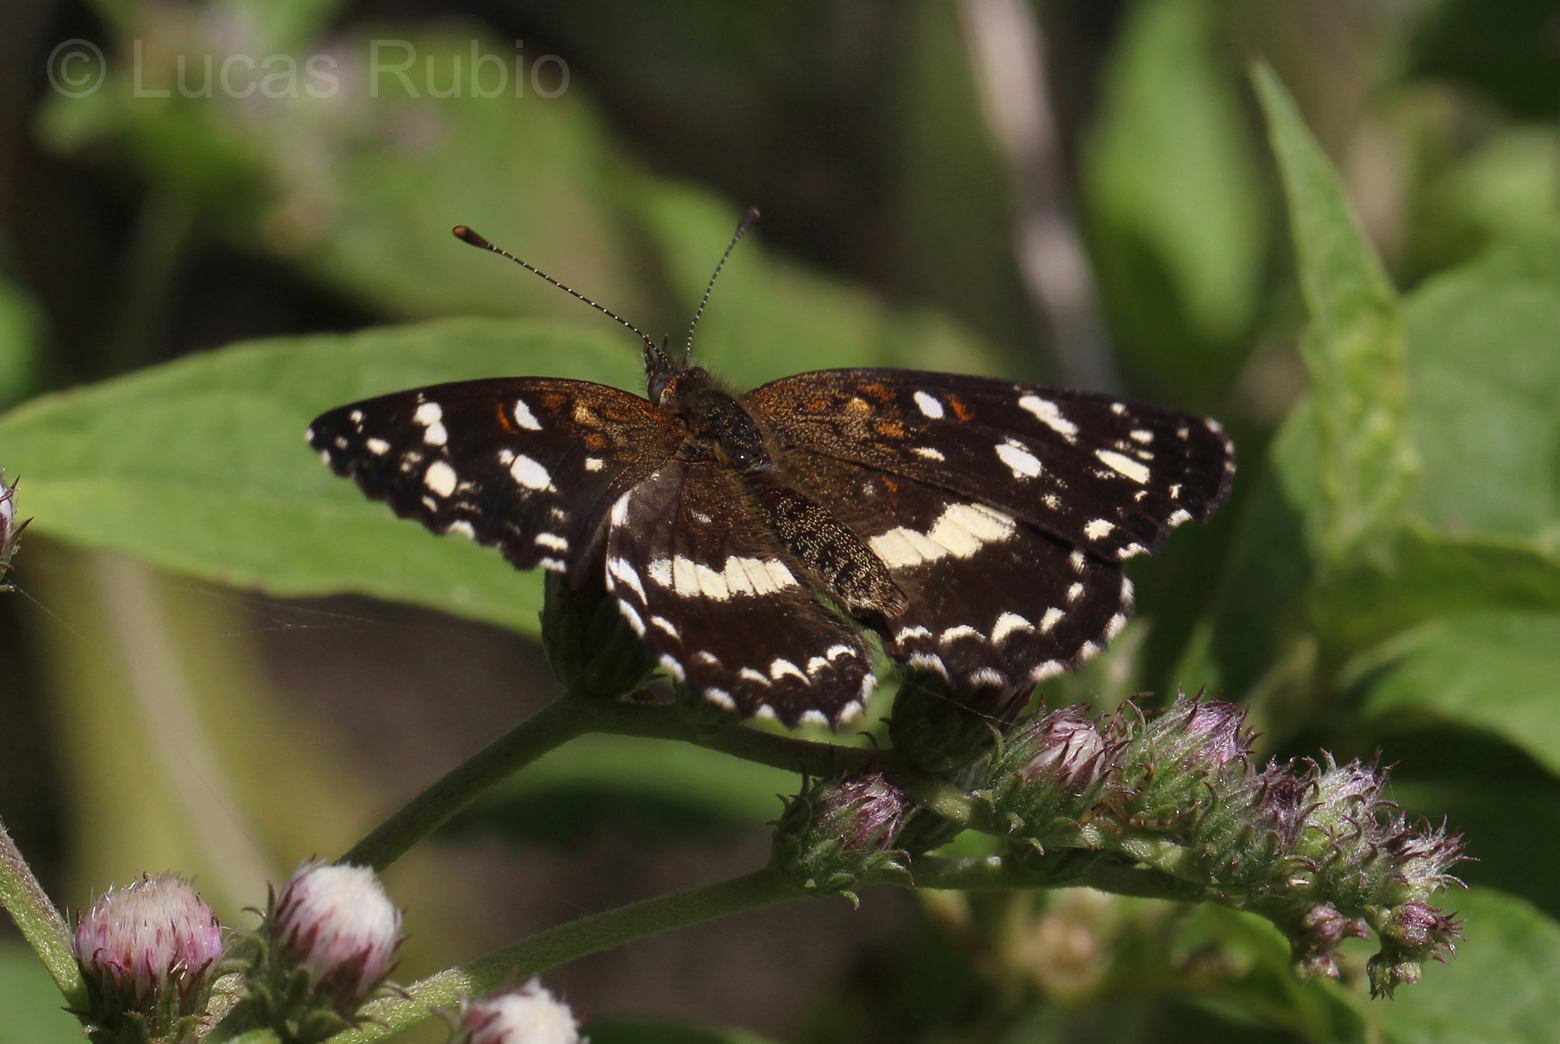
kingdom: Animalia
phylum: Arthropoda
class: Insecta
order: Lepidoptera
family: Nymphalidae
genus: Ortilia
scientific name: Ortilia ithra
